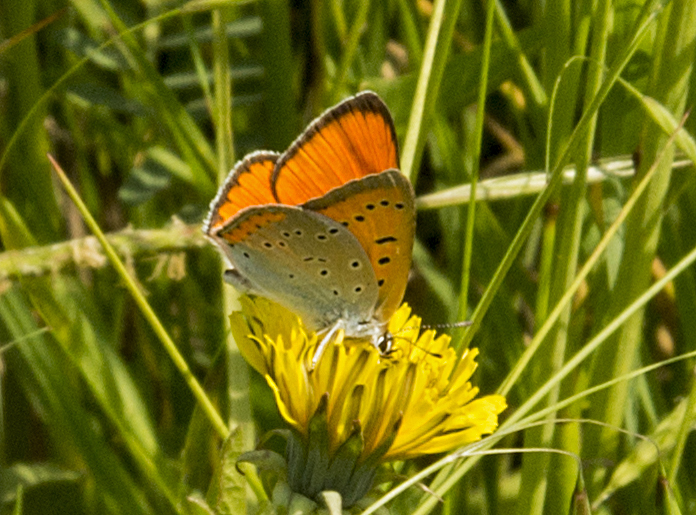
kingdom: Animalia
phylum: Arthropoda
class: Insecta
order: Lepidoptera
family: Lycaenidae
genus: Lycaena
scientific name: Lycaena dispar
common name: Large copper
